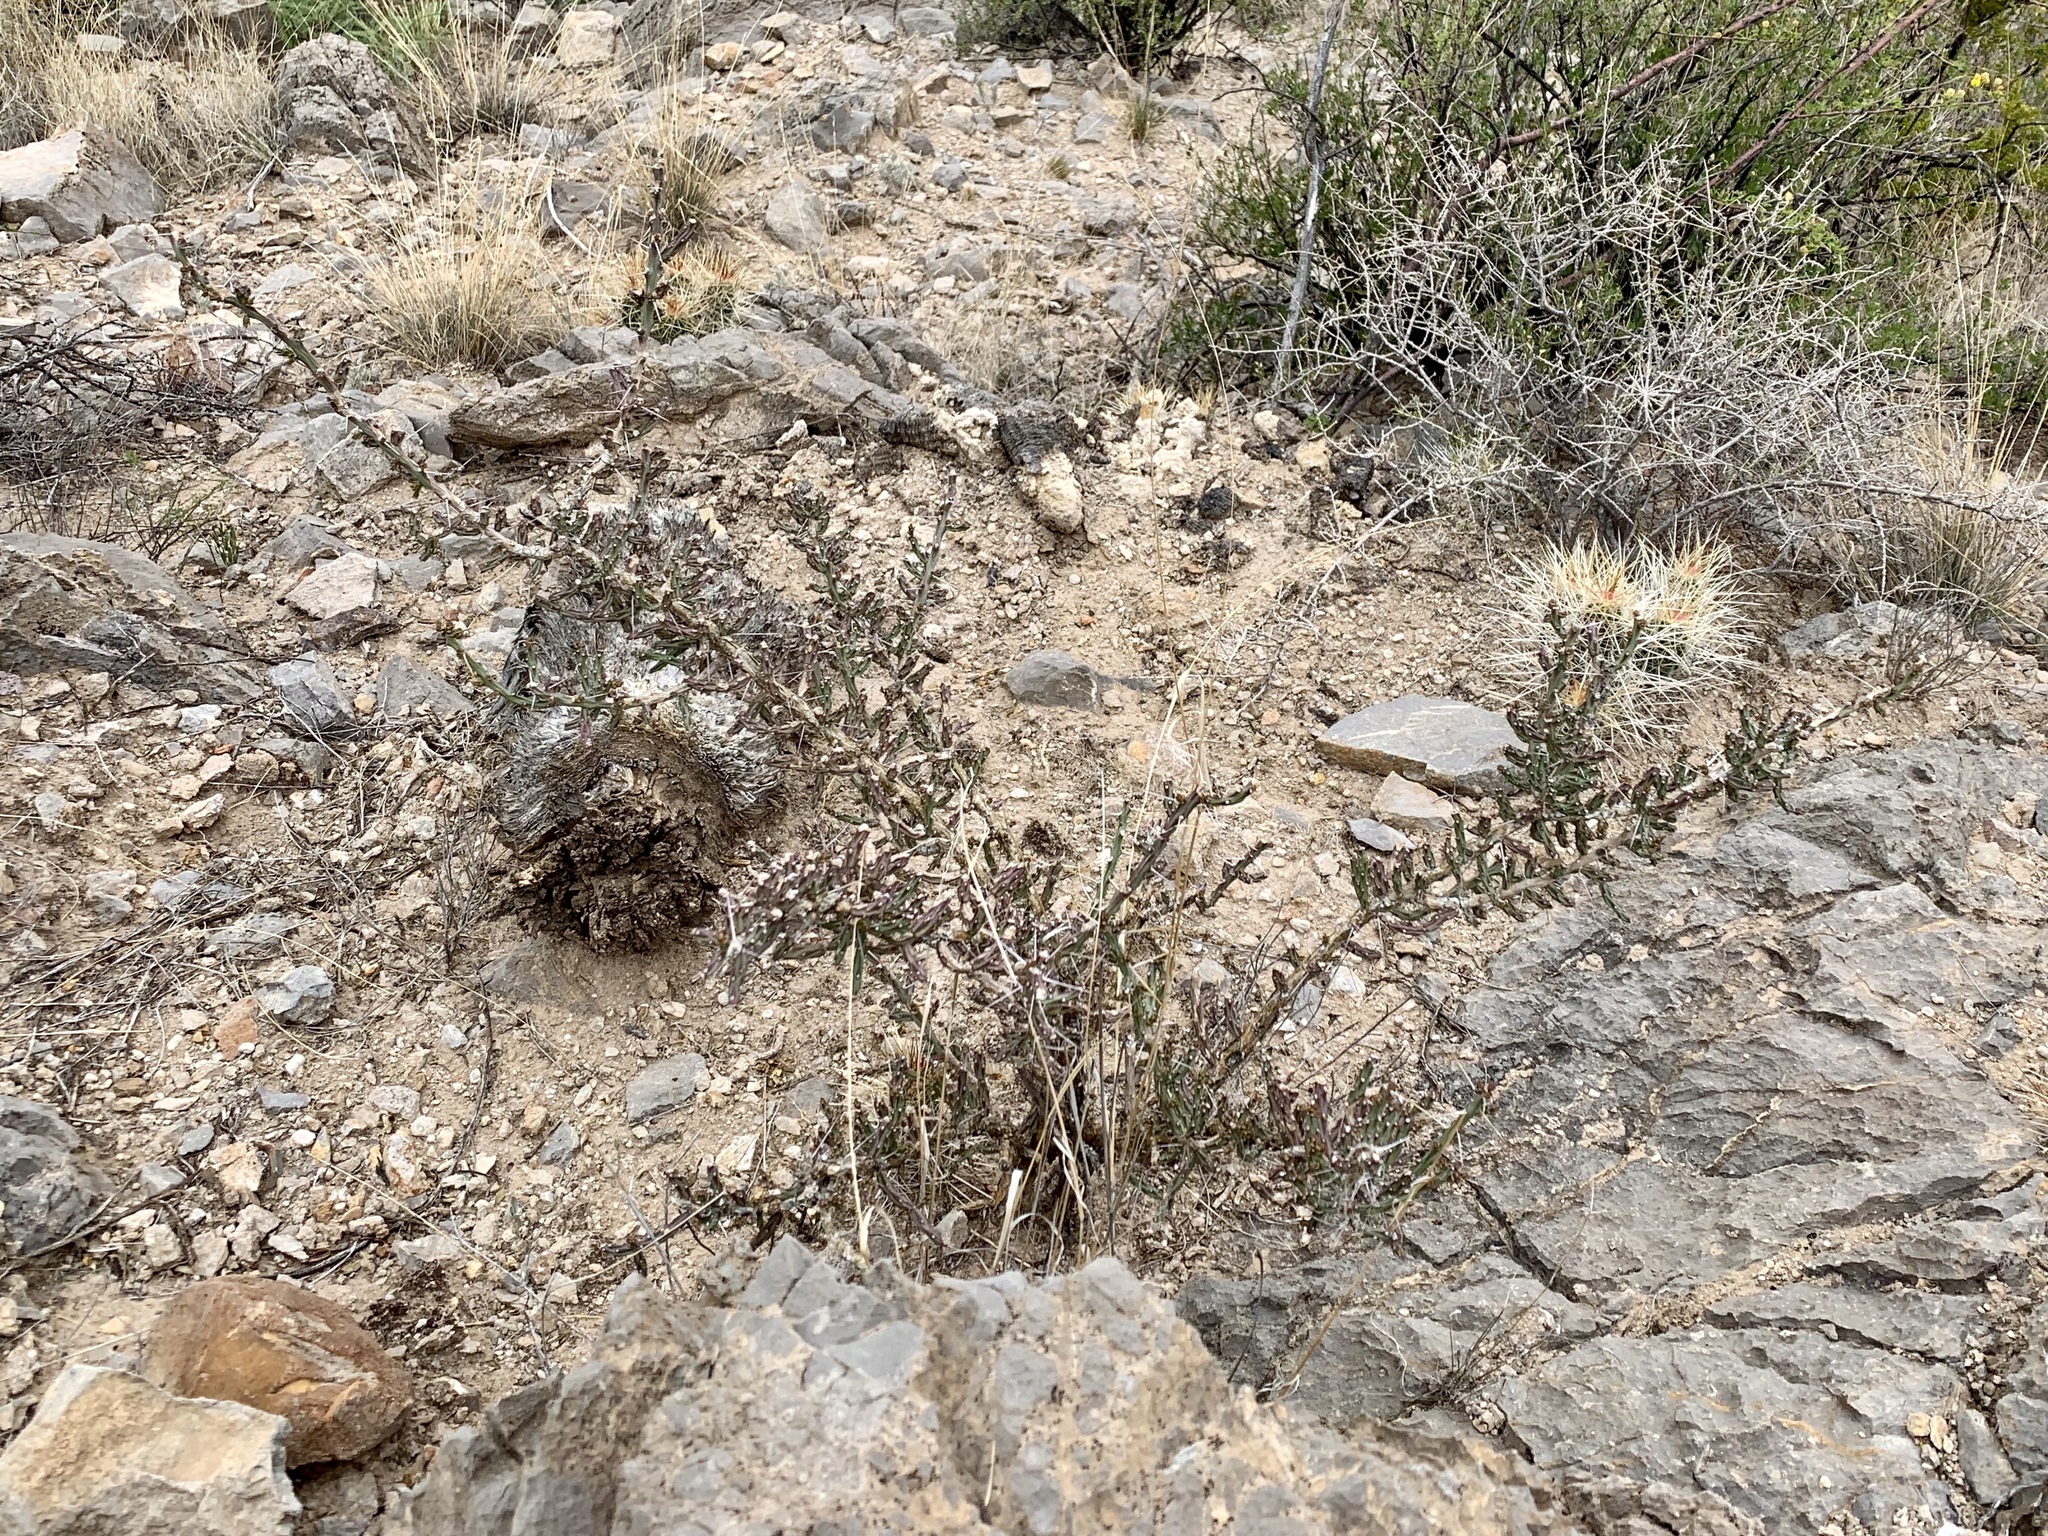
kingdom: Plantae
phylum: Tracheophyta
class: Magnoliopsida
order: Caryophyllales
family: Cactaceae
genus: Cylindropuntia
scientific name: Cylindropuntia leptocaulis
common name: Christmas cactus
